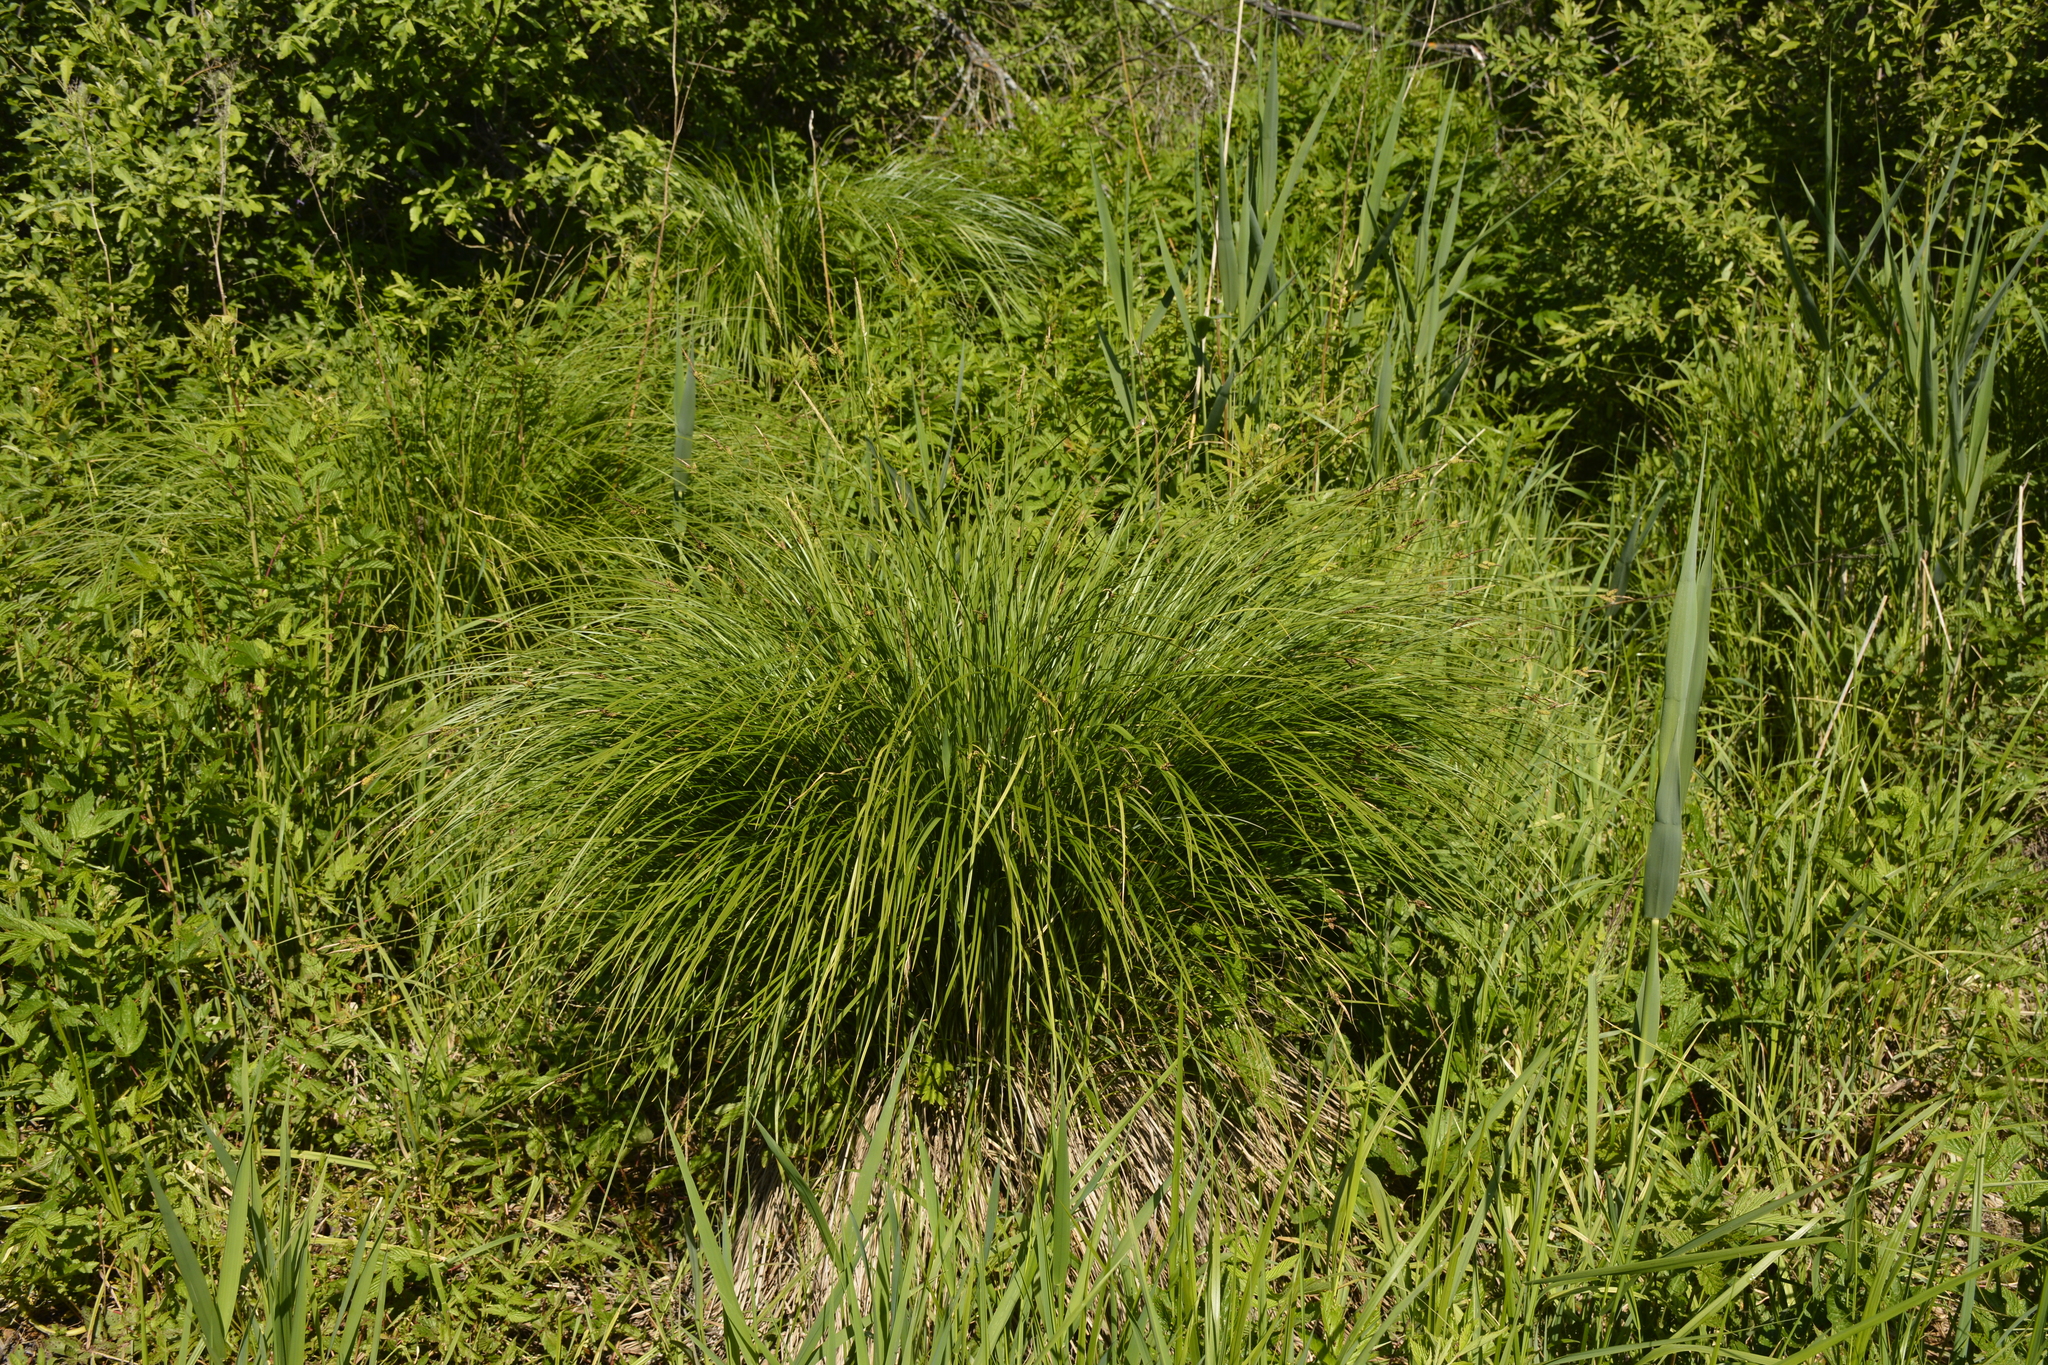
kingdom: Plantae
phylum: Tracheophyta
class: Liliopsida
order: Poales
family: Cyperaceae
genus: Carex
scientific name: Carex cespitosa
